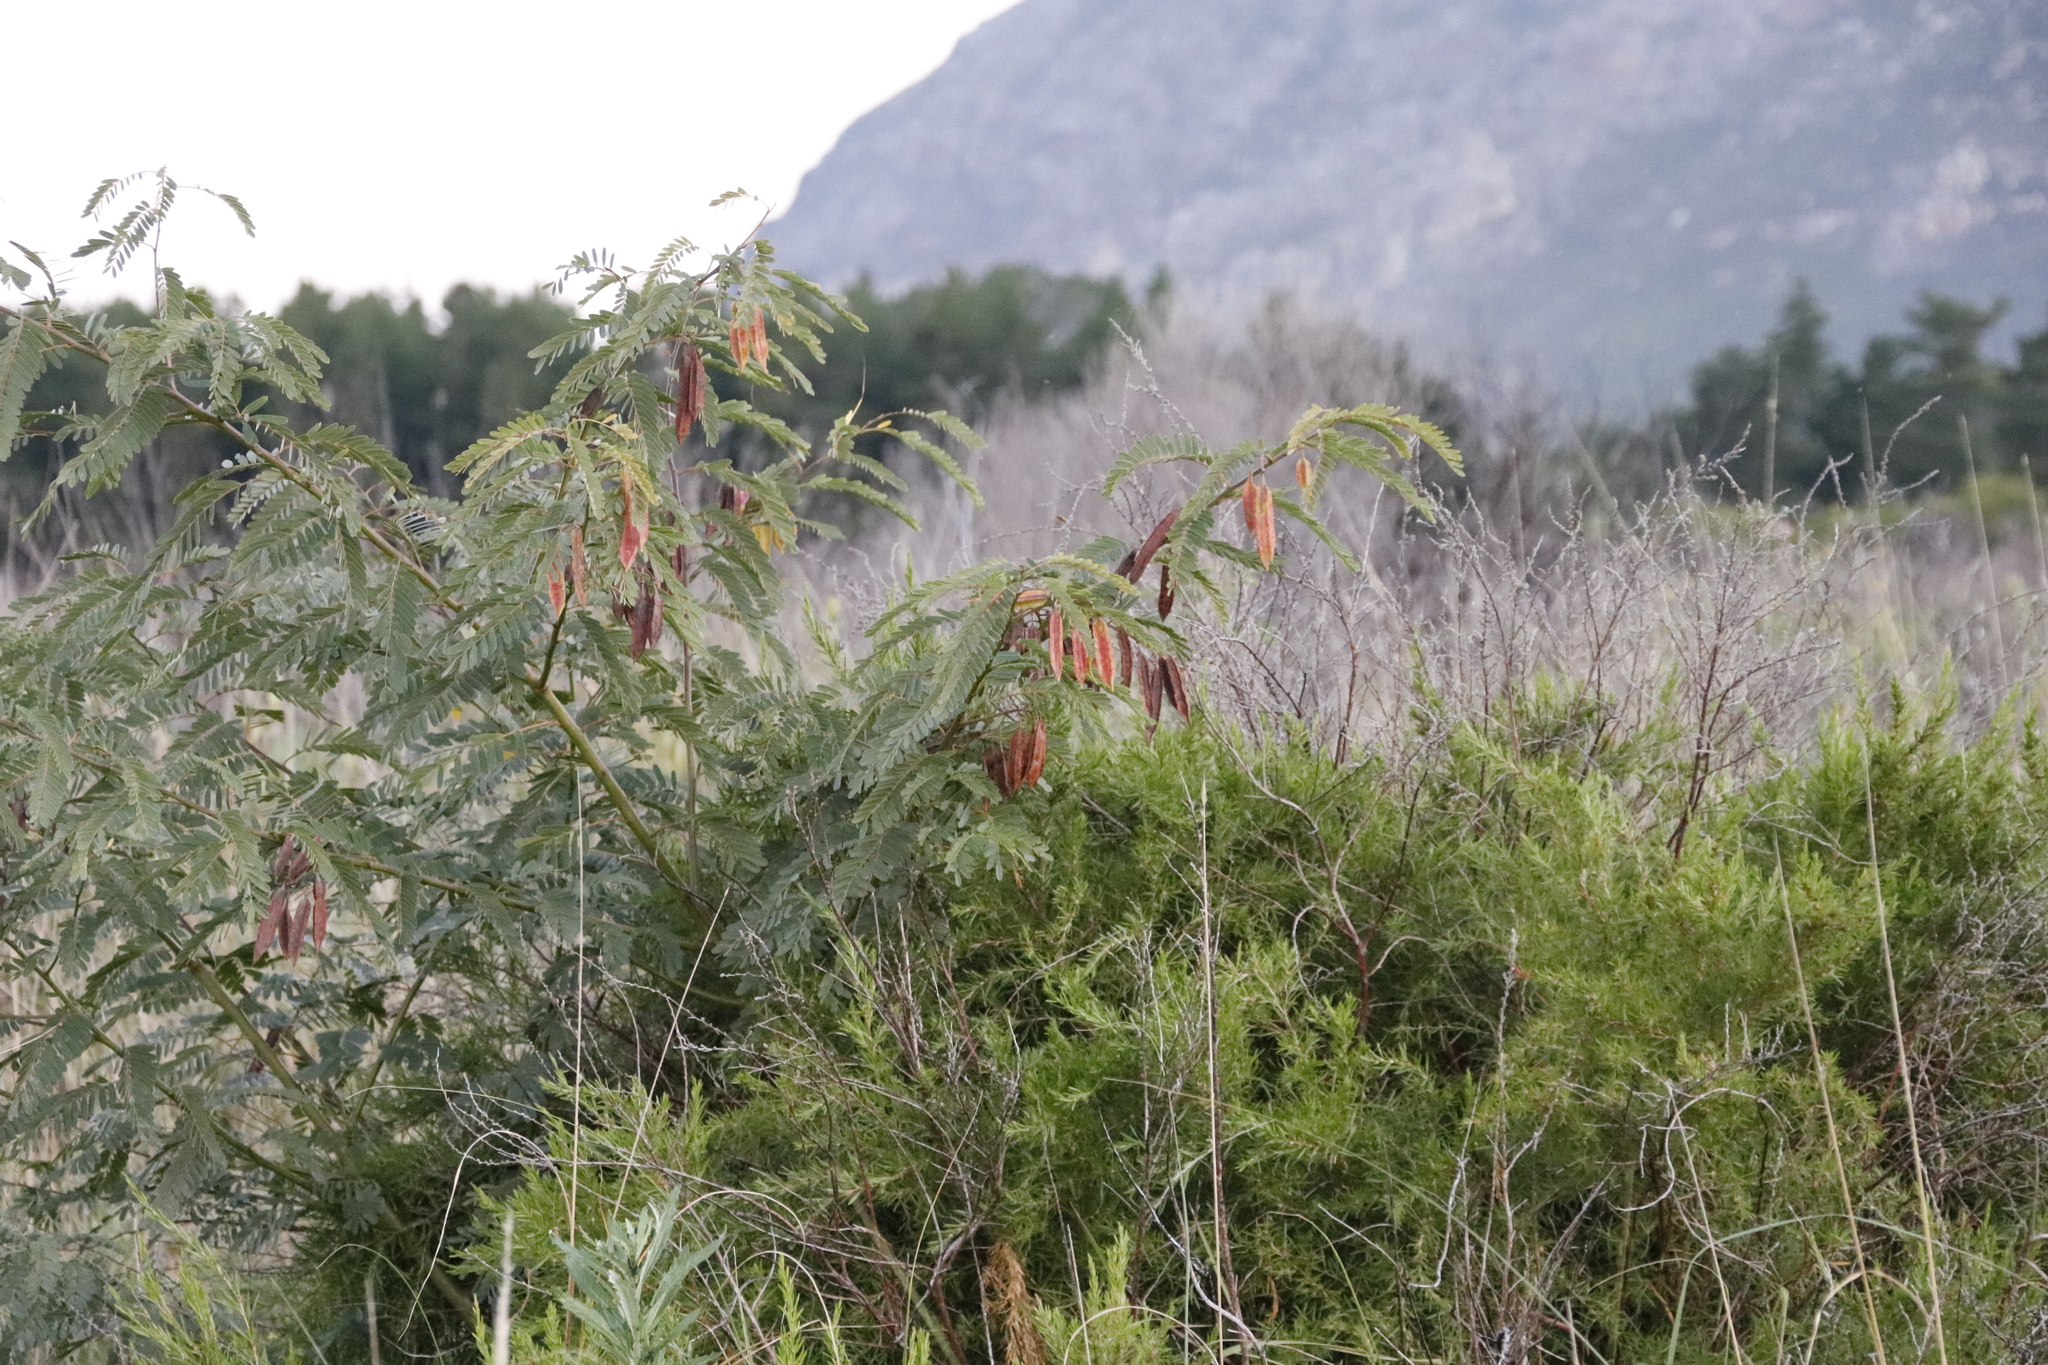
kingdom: Plantae
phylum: Tracheophyta
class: Magnoliopsida
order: Fabales
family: Fabaceae
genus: Sesbania
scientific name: Sesbania punicea
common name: Rattlebox
